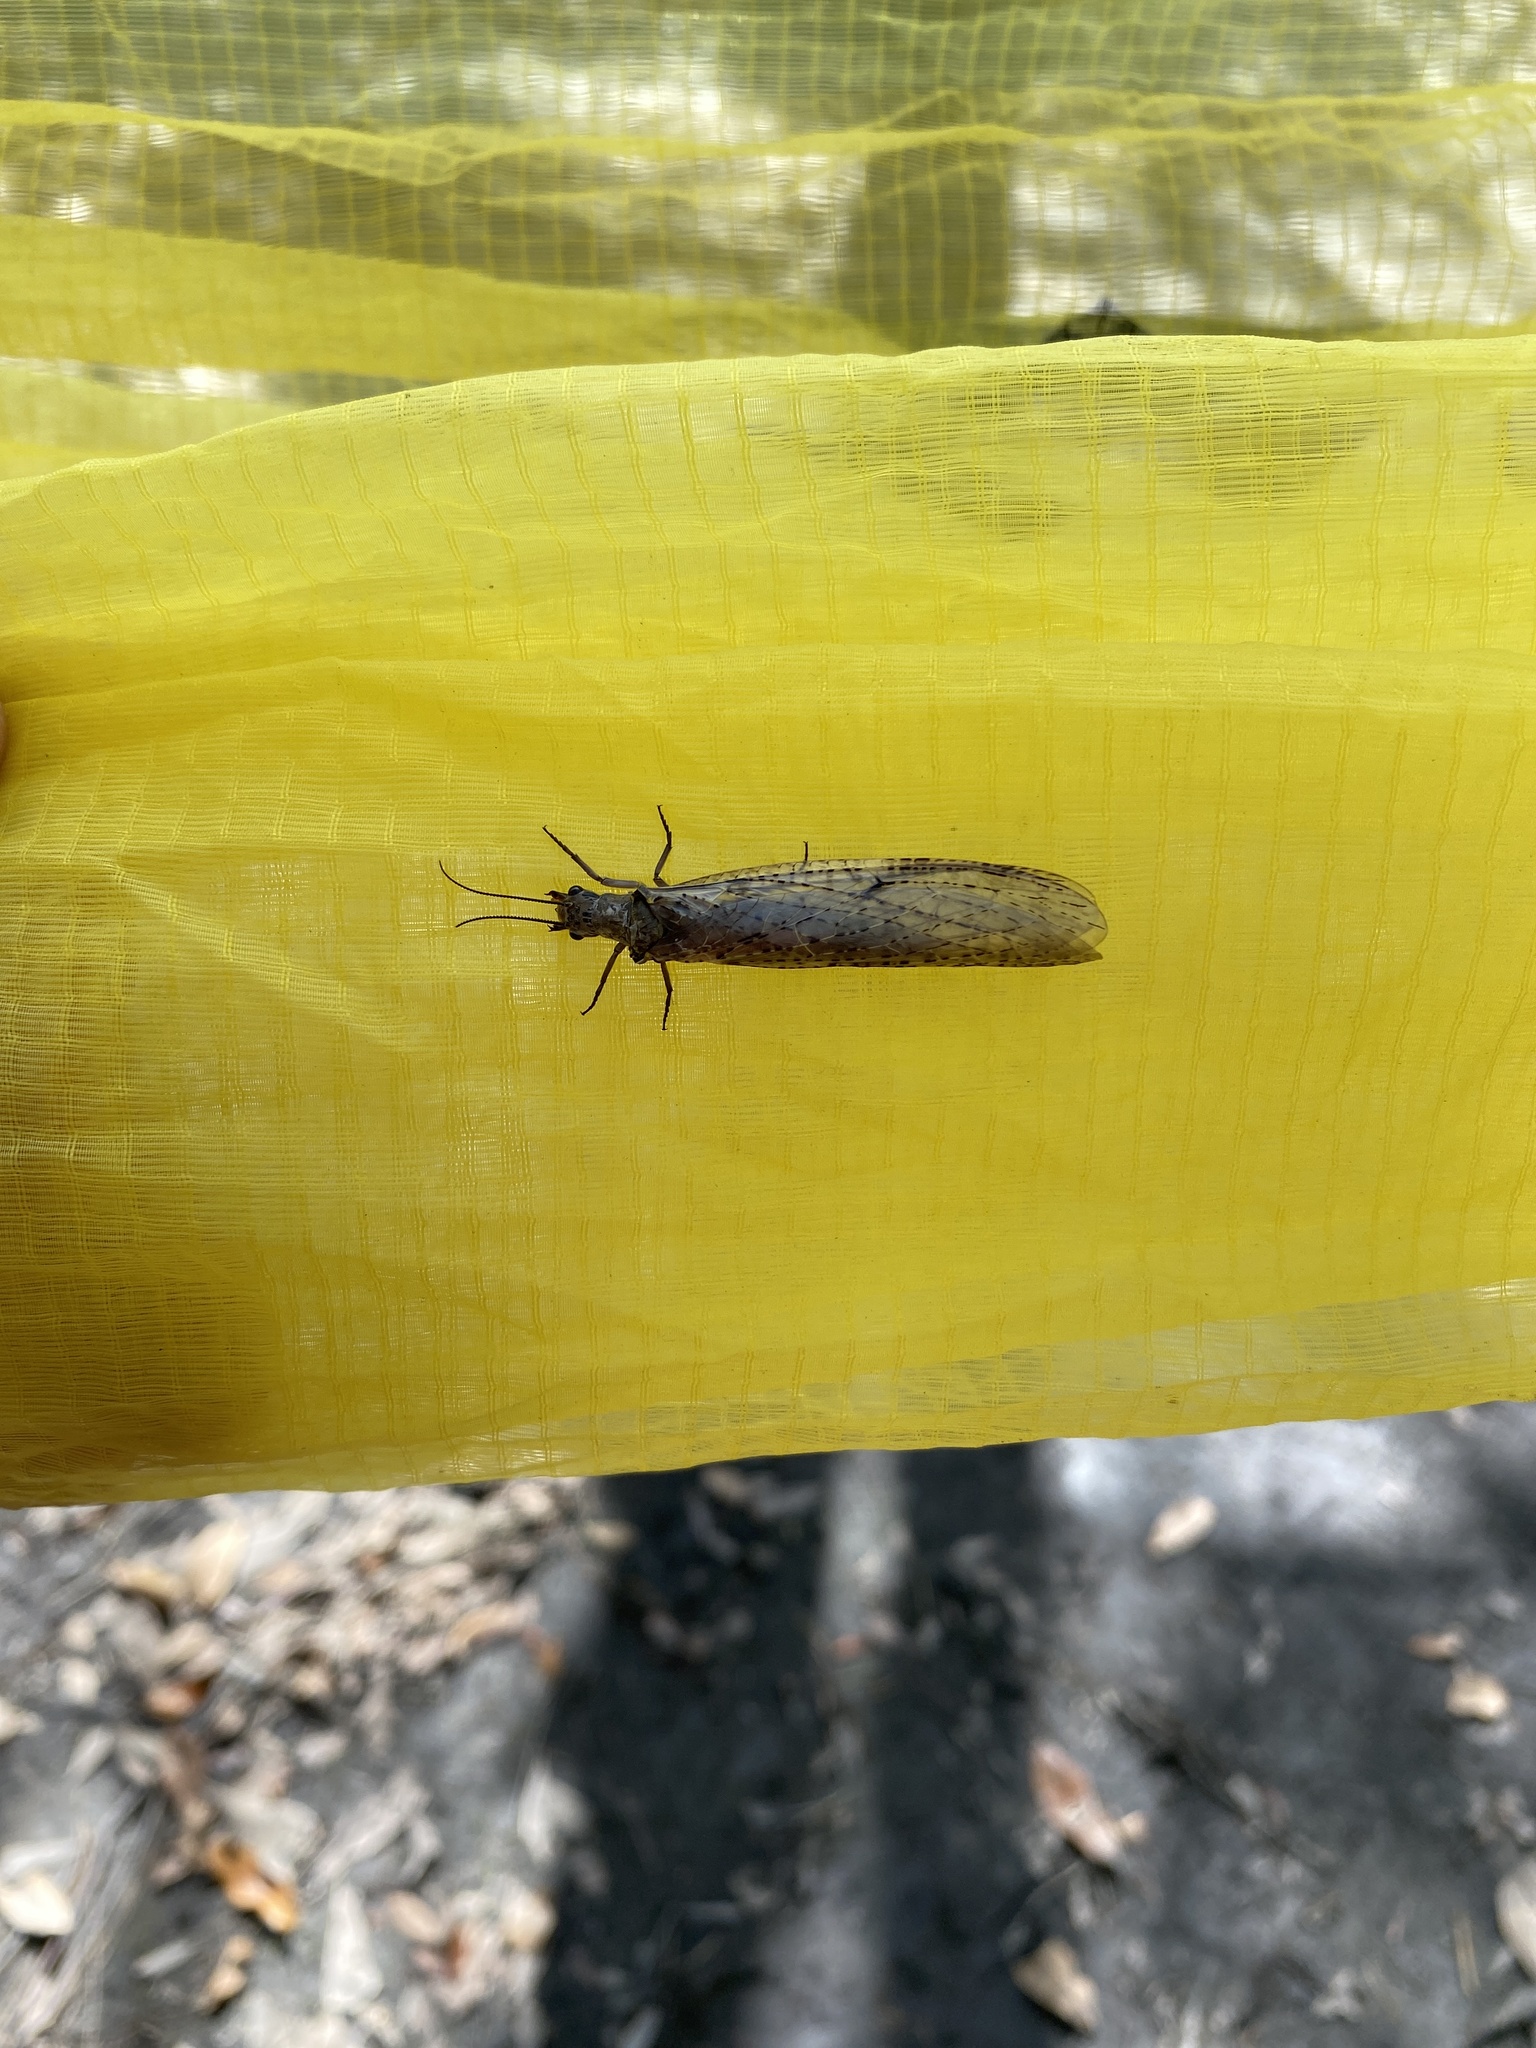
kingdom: Animalia
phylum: Arthropoda
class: Insecta
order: Megaloptera
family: Corydalidae
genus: Chauliodes
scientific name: Chauliodes rastricornis
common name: Spring fishfly
